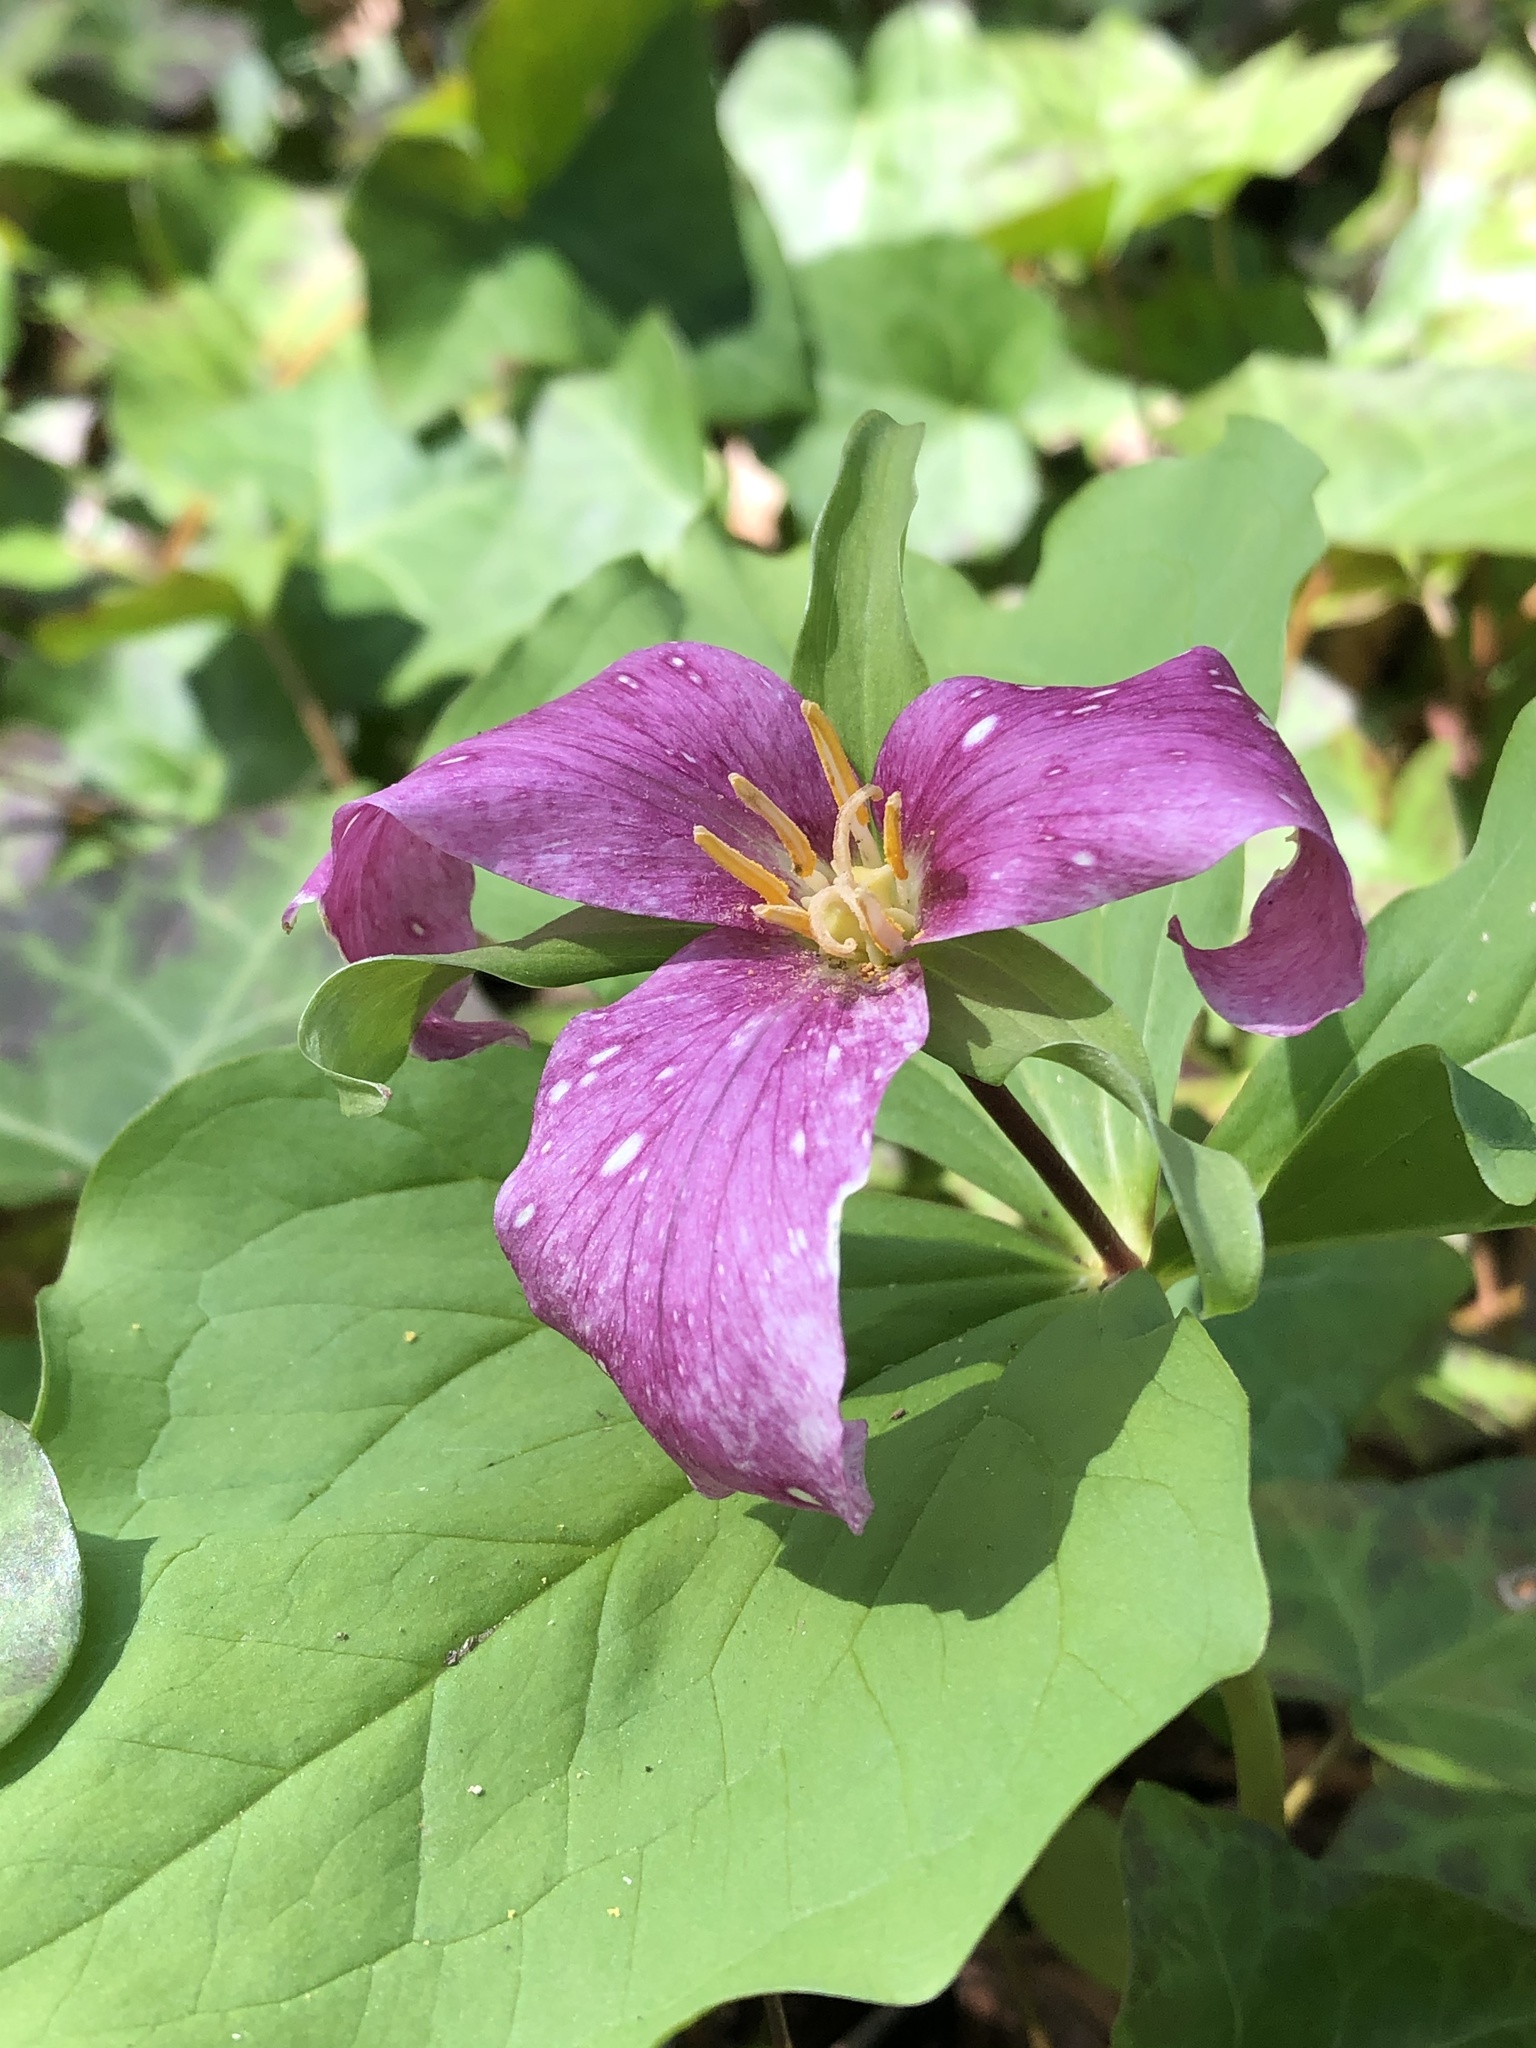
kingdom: Plantae
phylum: Tracheophyta
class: Liliopsida
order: Liliales
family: Melanthiaceae
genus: Trillium
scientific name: Trillium ovatum
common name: Pacific trillium
